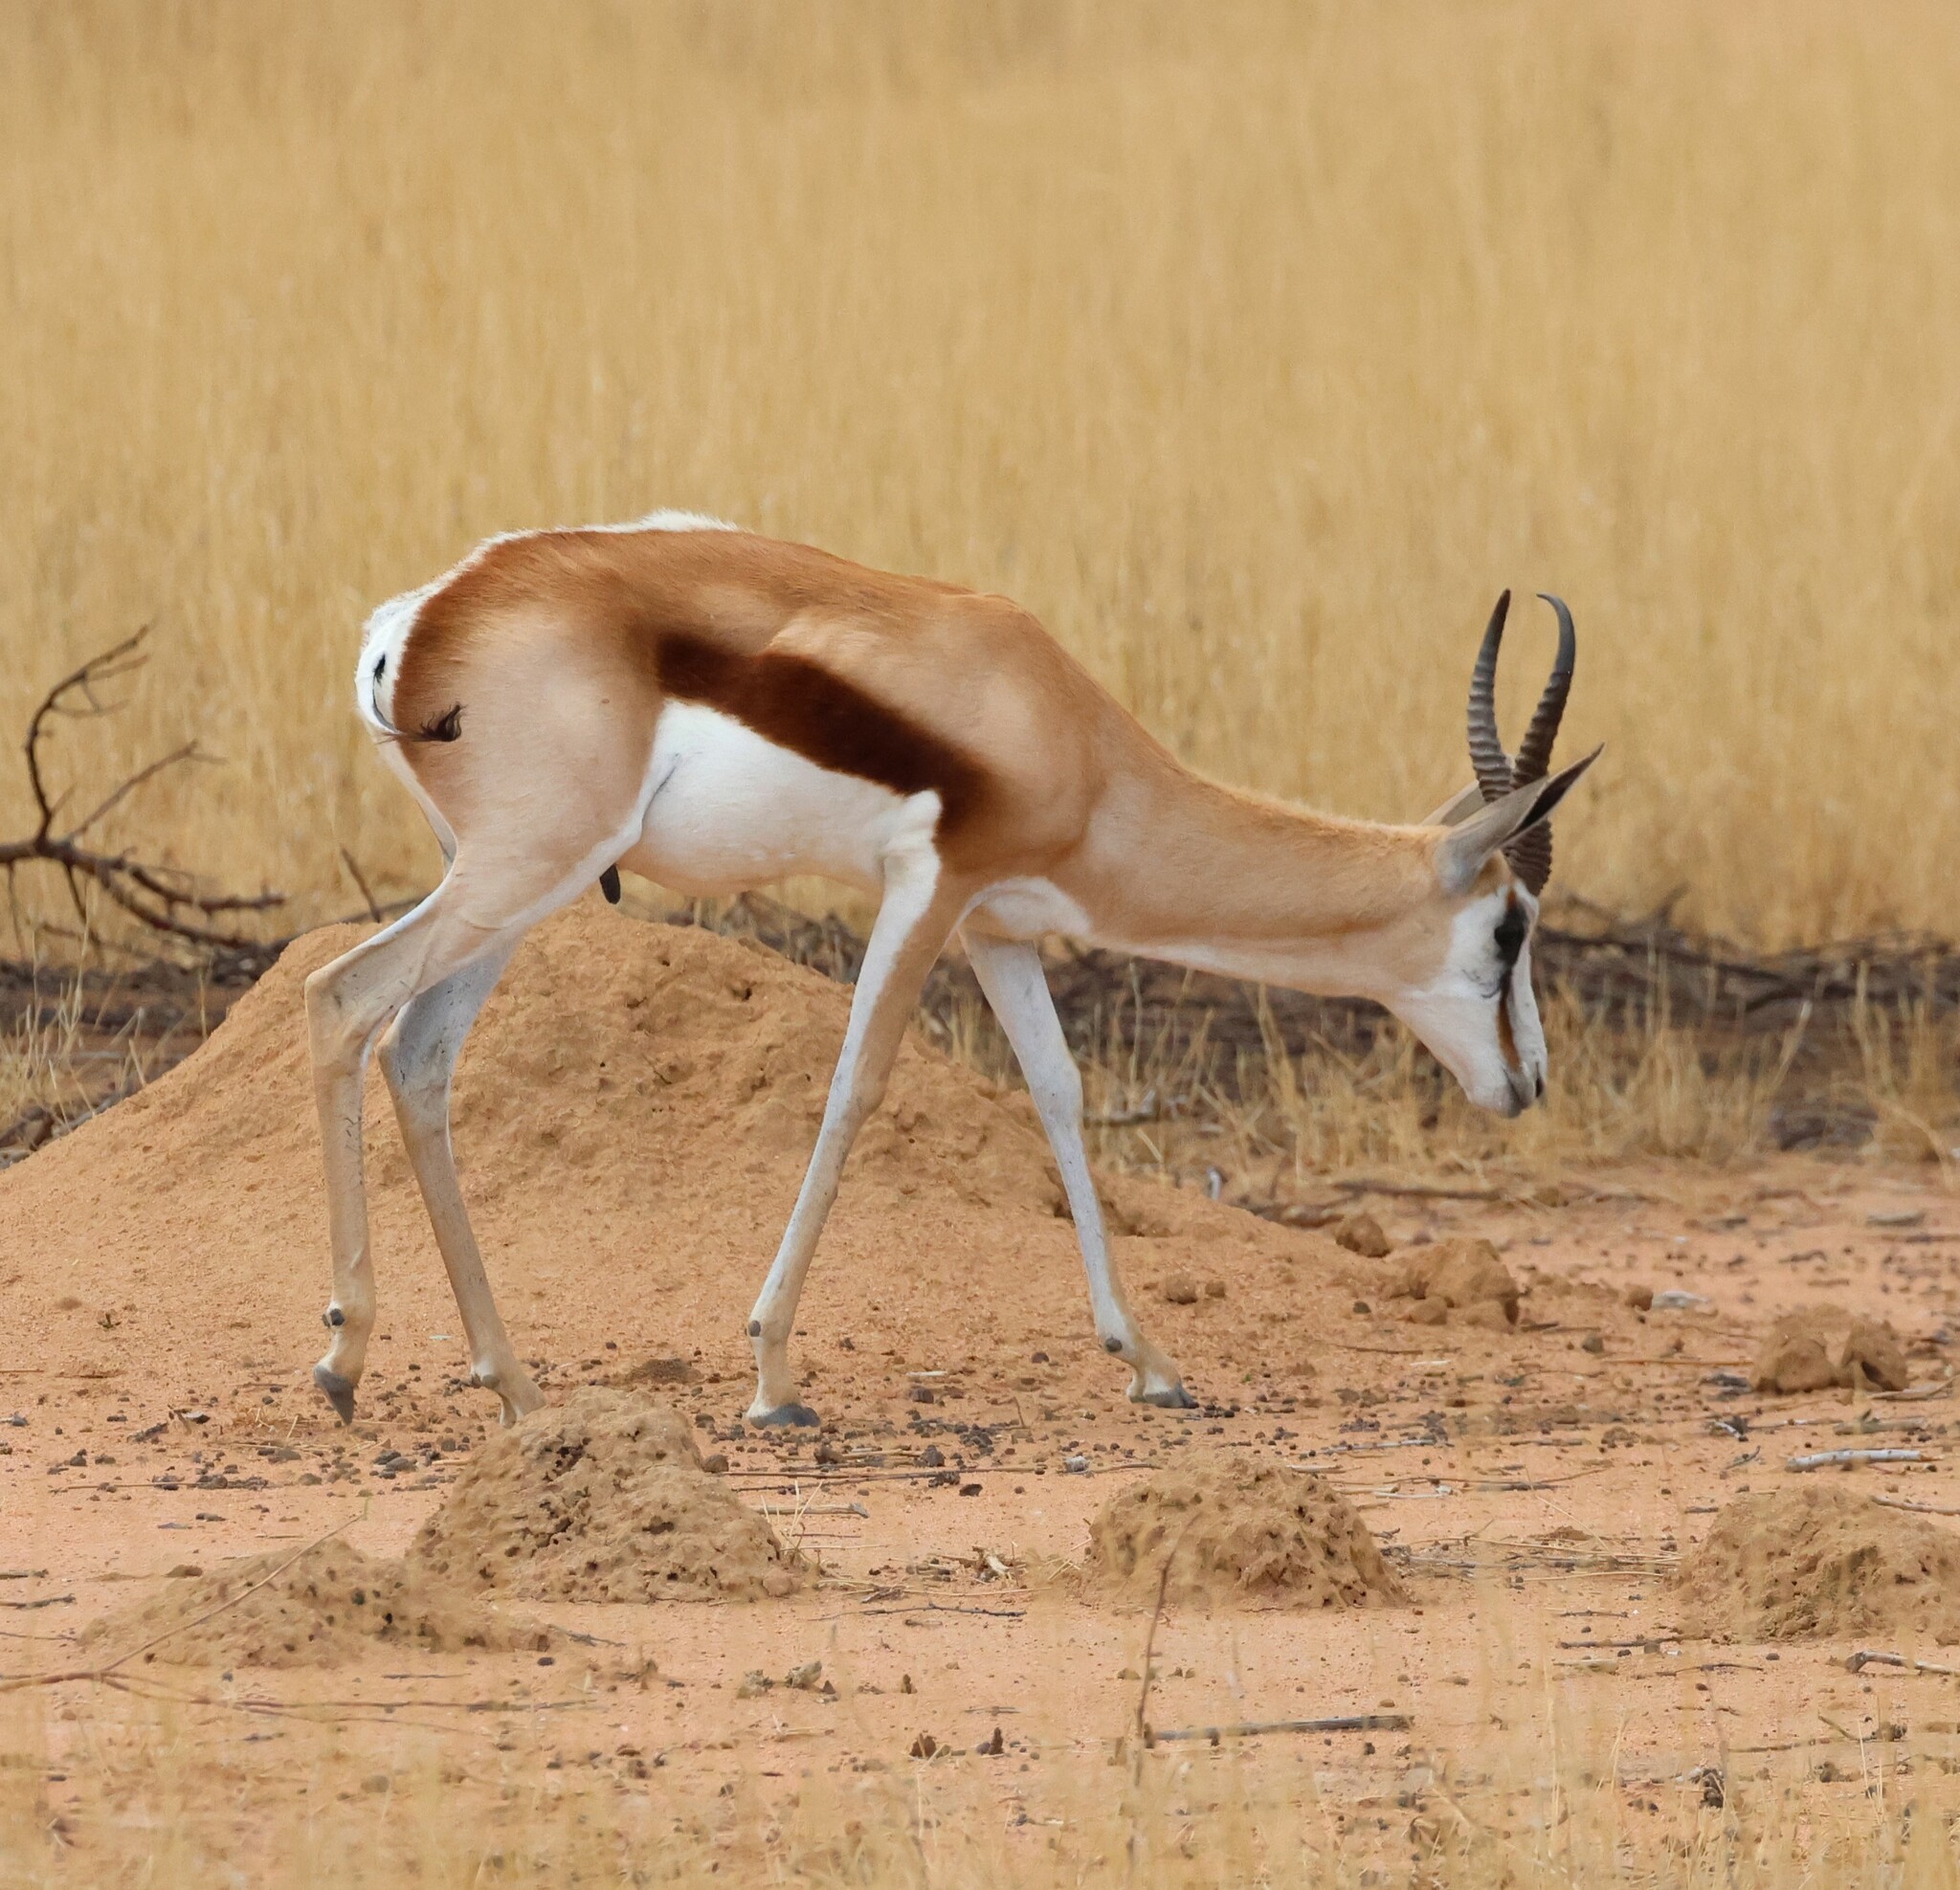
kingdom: Animalia
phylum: Chordata
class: Mammalia
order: Artiodactyla
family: Bovidae
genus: Antidorcas
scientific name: Antidorcas marsupialis
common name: Springbok
